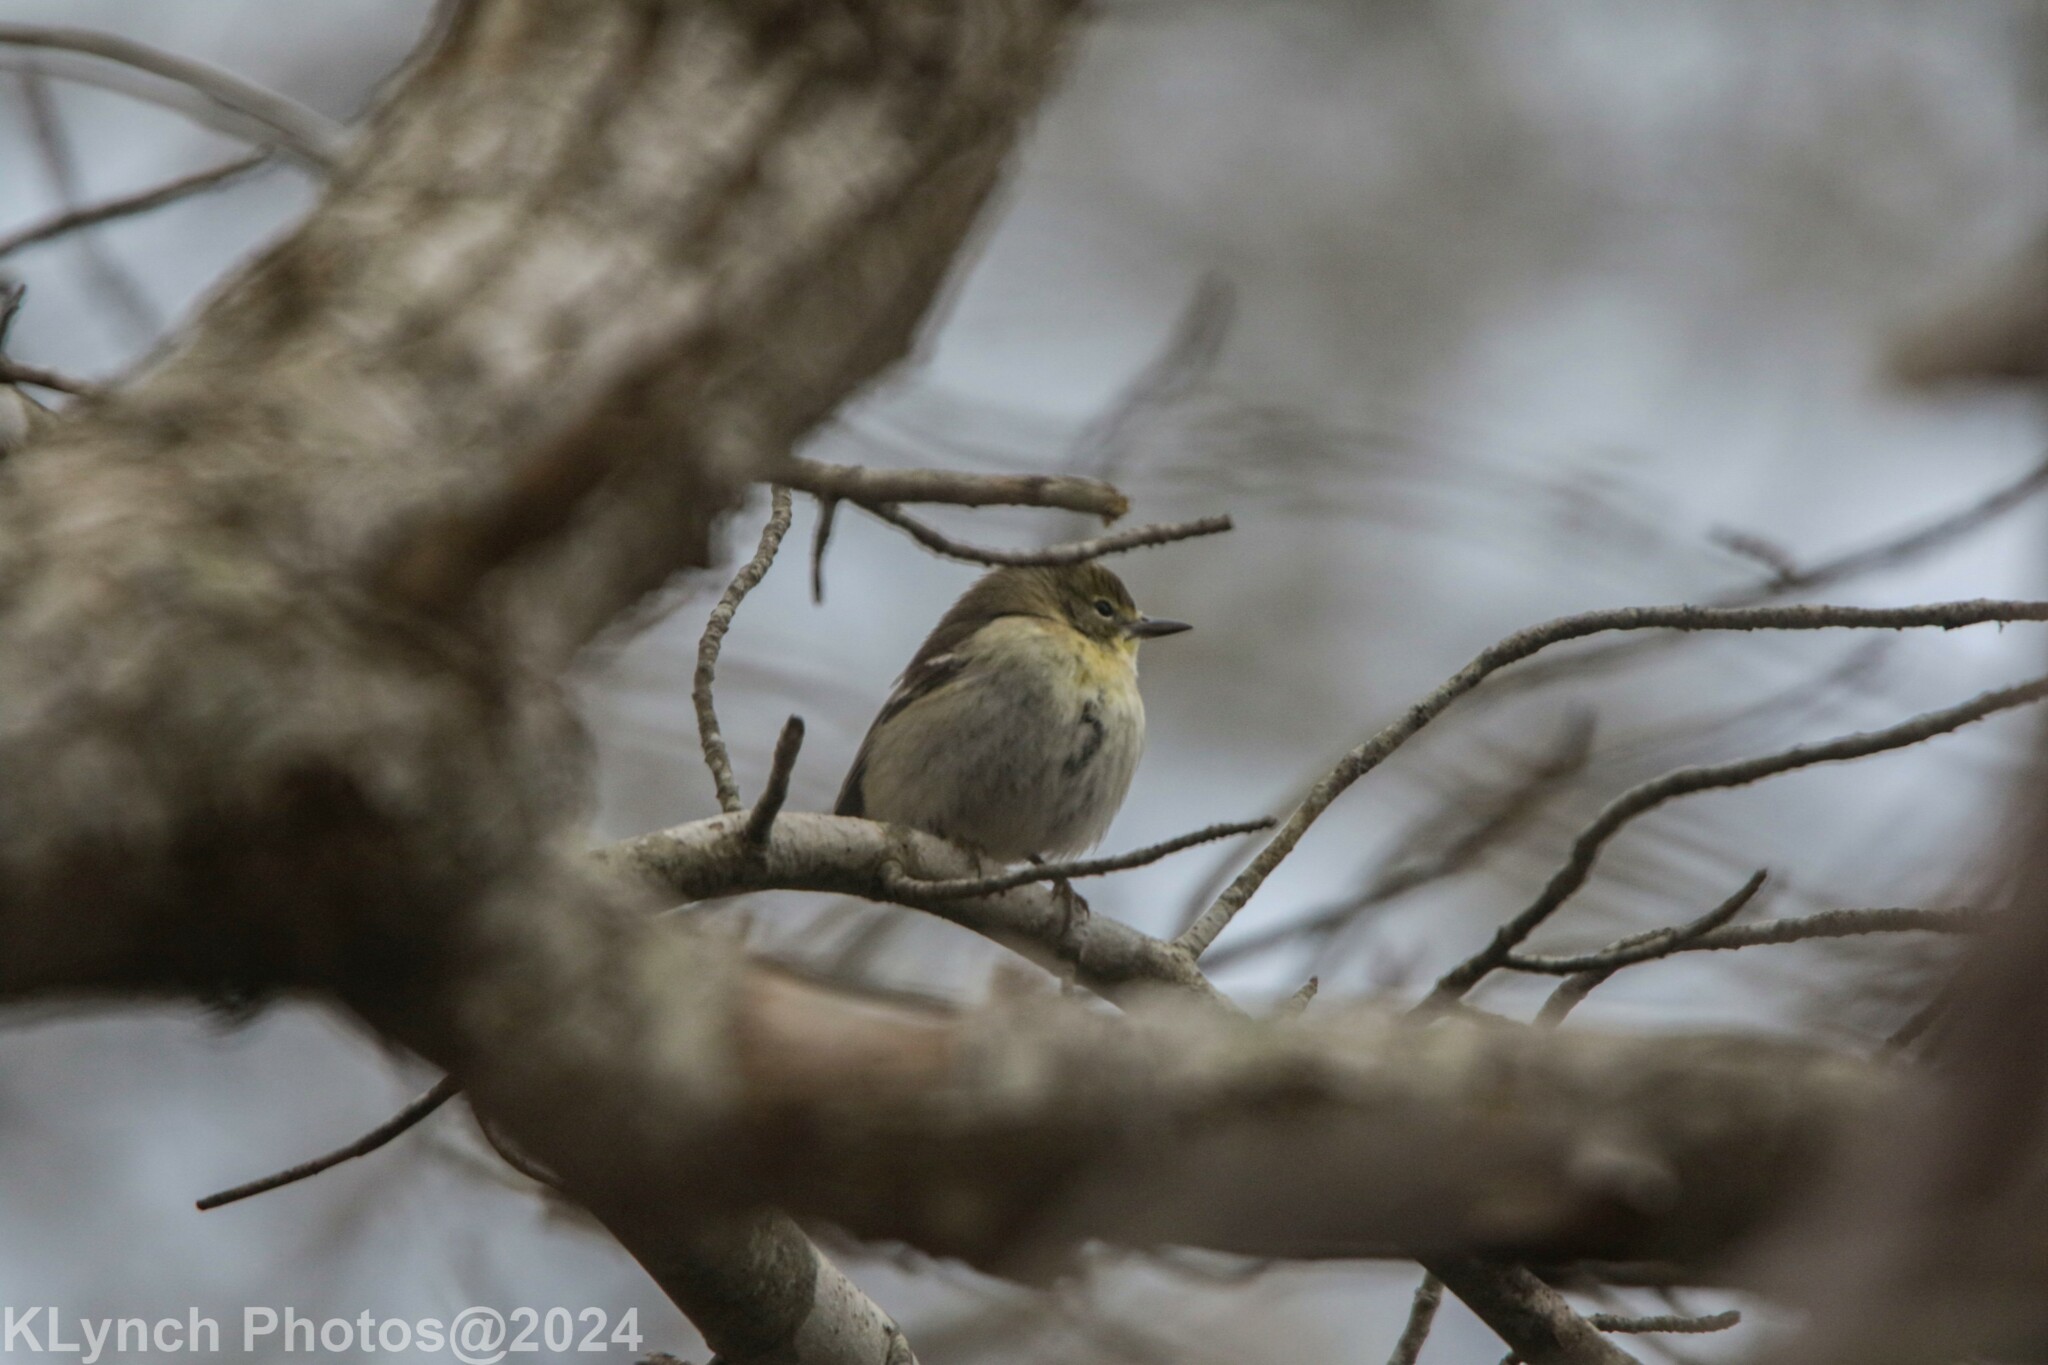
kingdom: Animalia
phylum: Chordata
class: Aves
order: Passeriformes
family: Parulidae
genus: Setophaga
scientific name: Setophaga pinus
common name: Pine warbler
